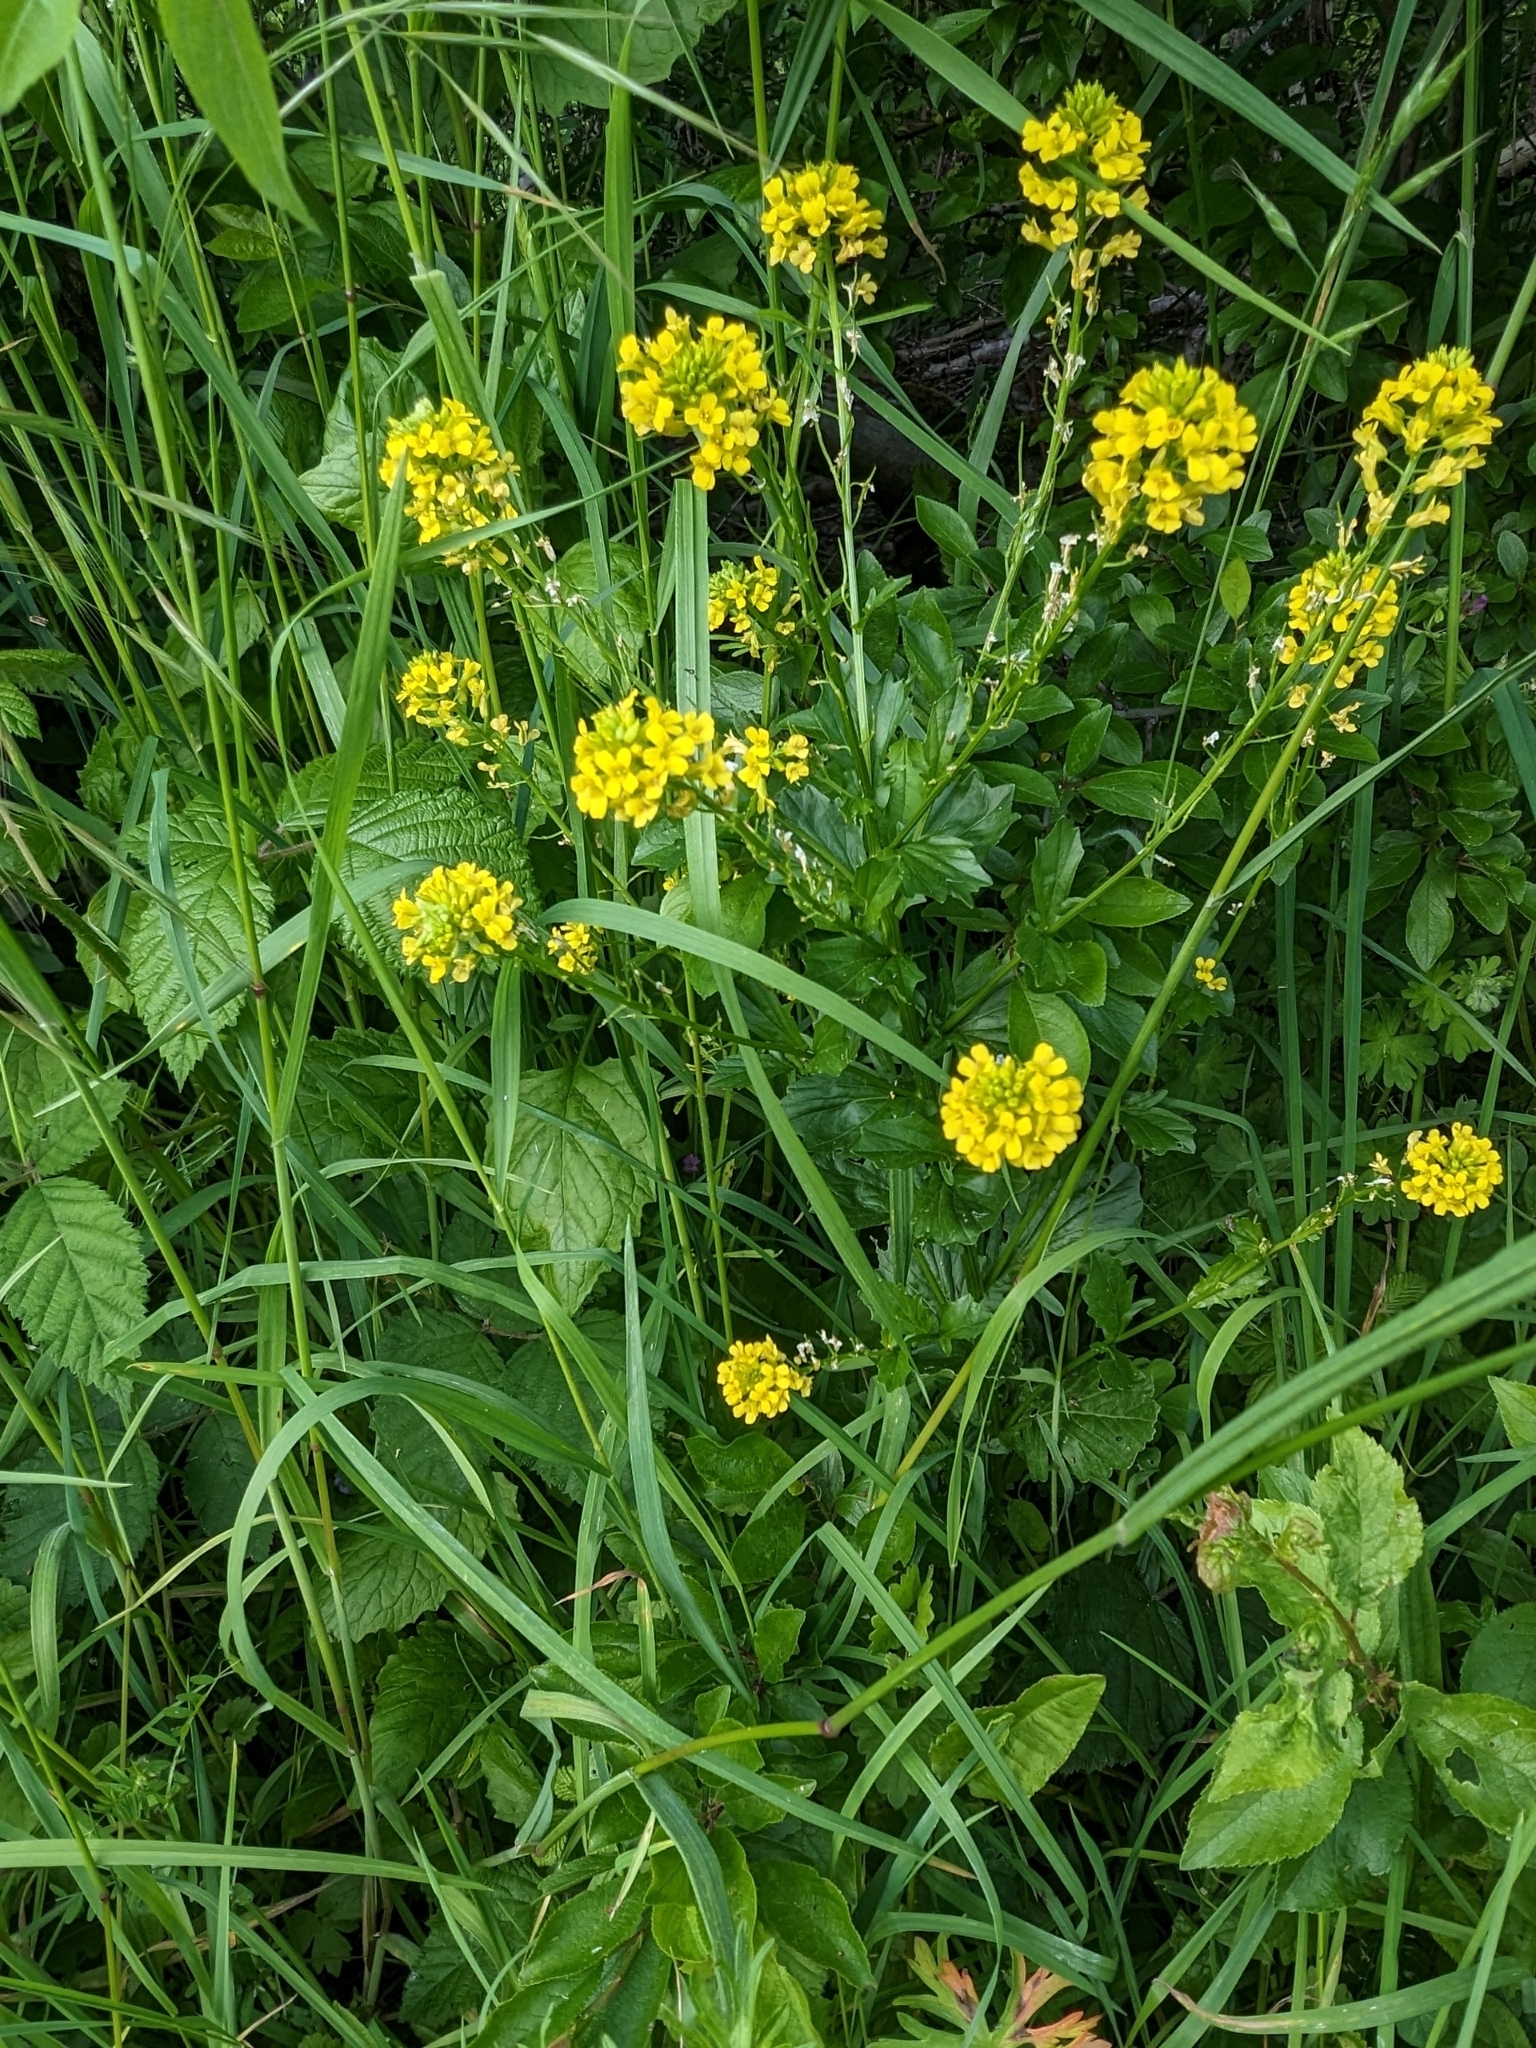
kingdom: Plantae
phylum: Tracheophyta
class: Magnoliopsida
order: Brassicales
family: Brassicaceae
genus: Barbarea
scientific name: Barbarea vulgaris
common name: Cressy-greens
